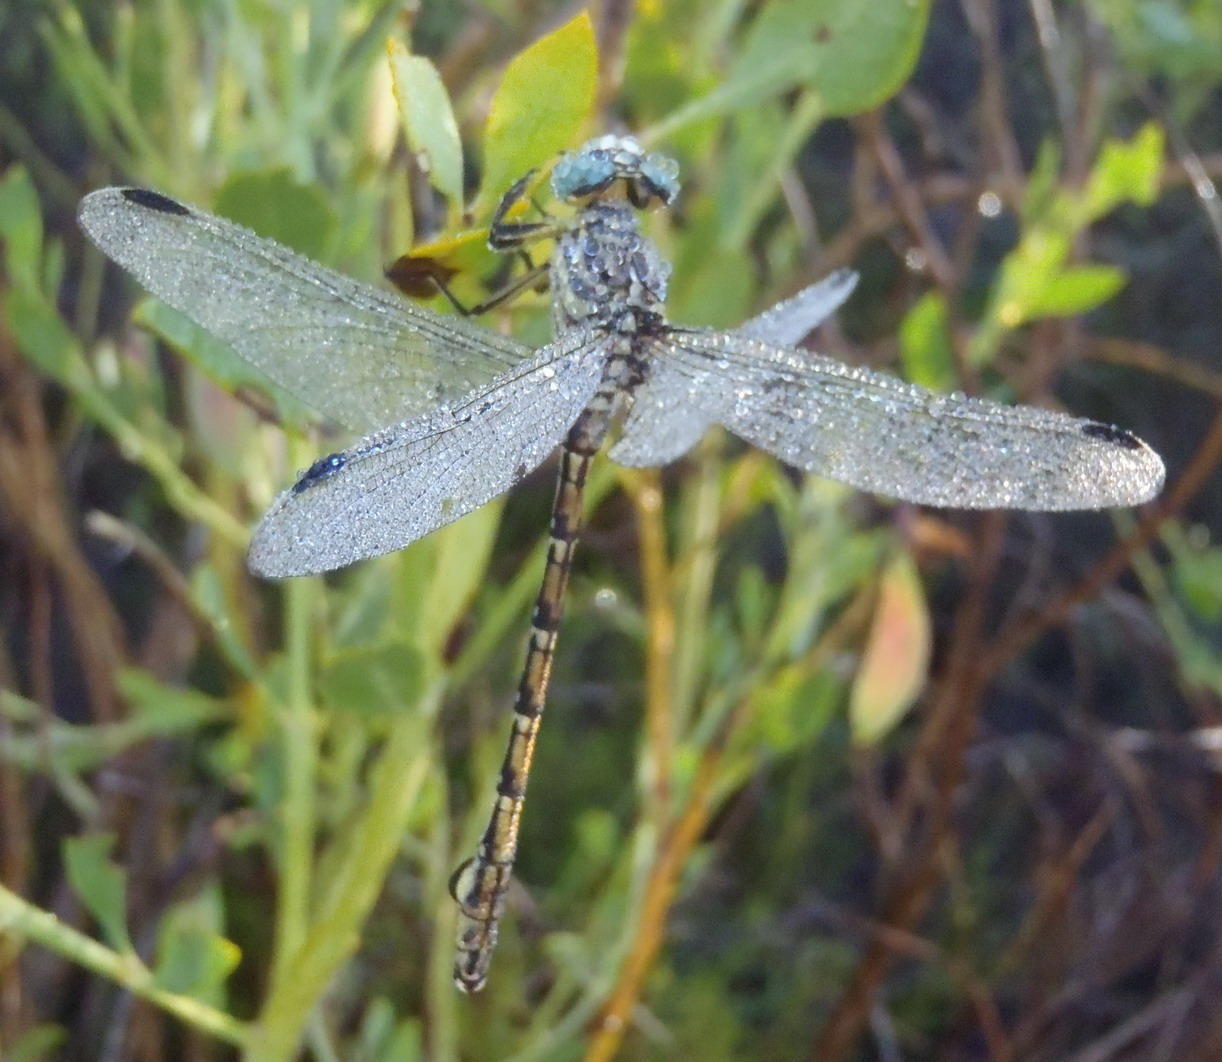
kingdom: Animalia
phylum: Arthropoda
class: Insecta
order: Odonata
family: Gomphidae
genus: Ceratogomphus
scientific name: Ceratogomphus pictus
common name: Common thorntail
